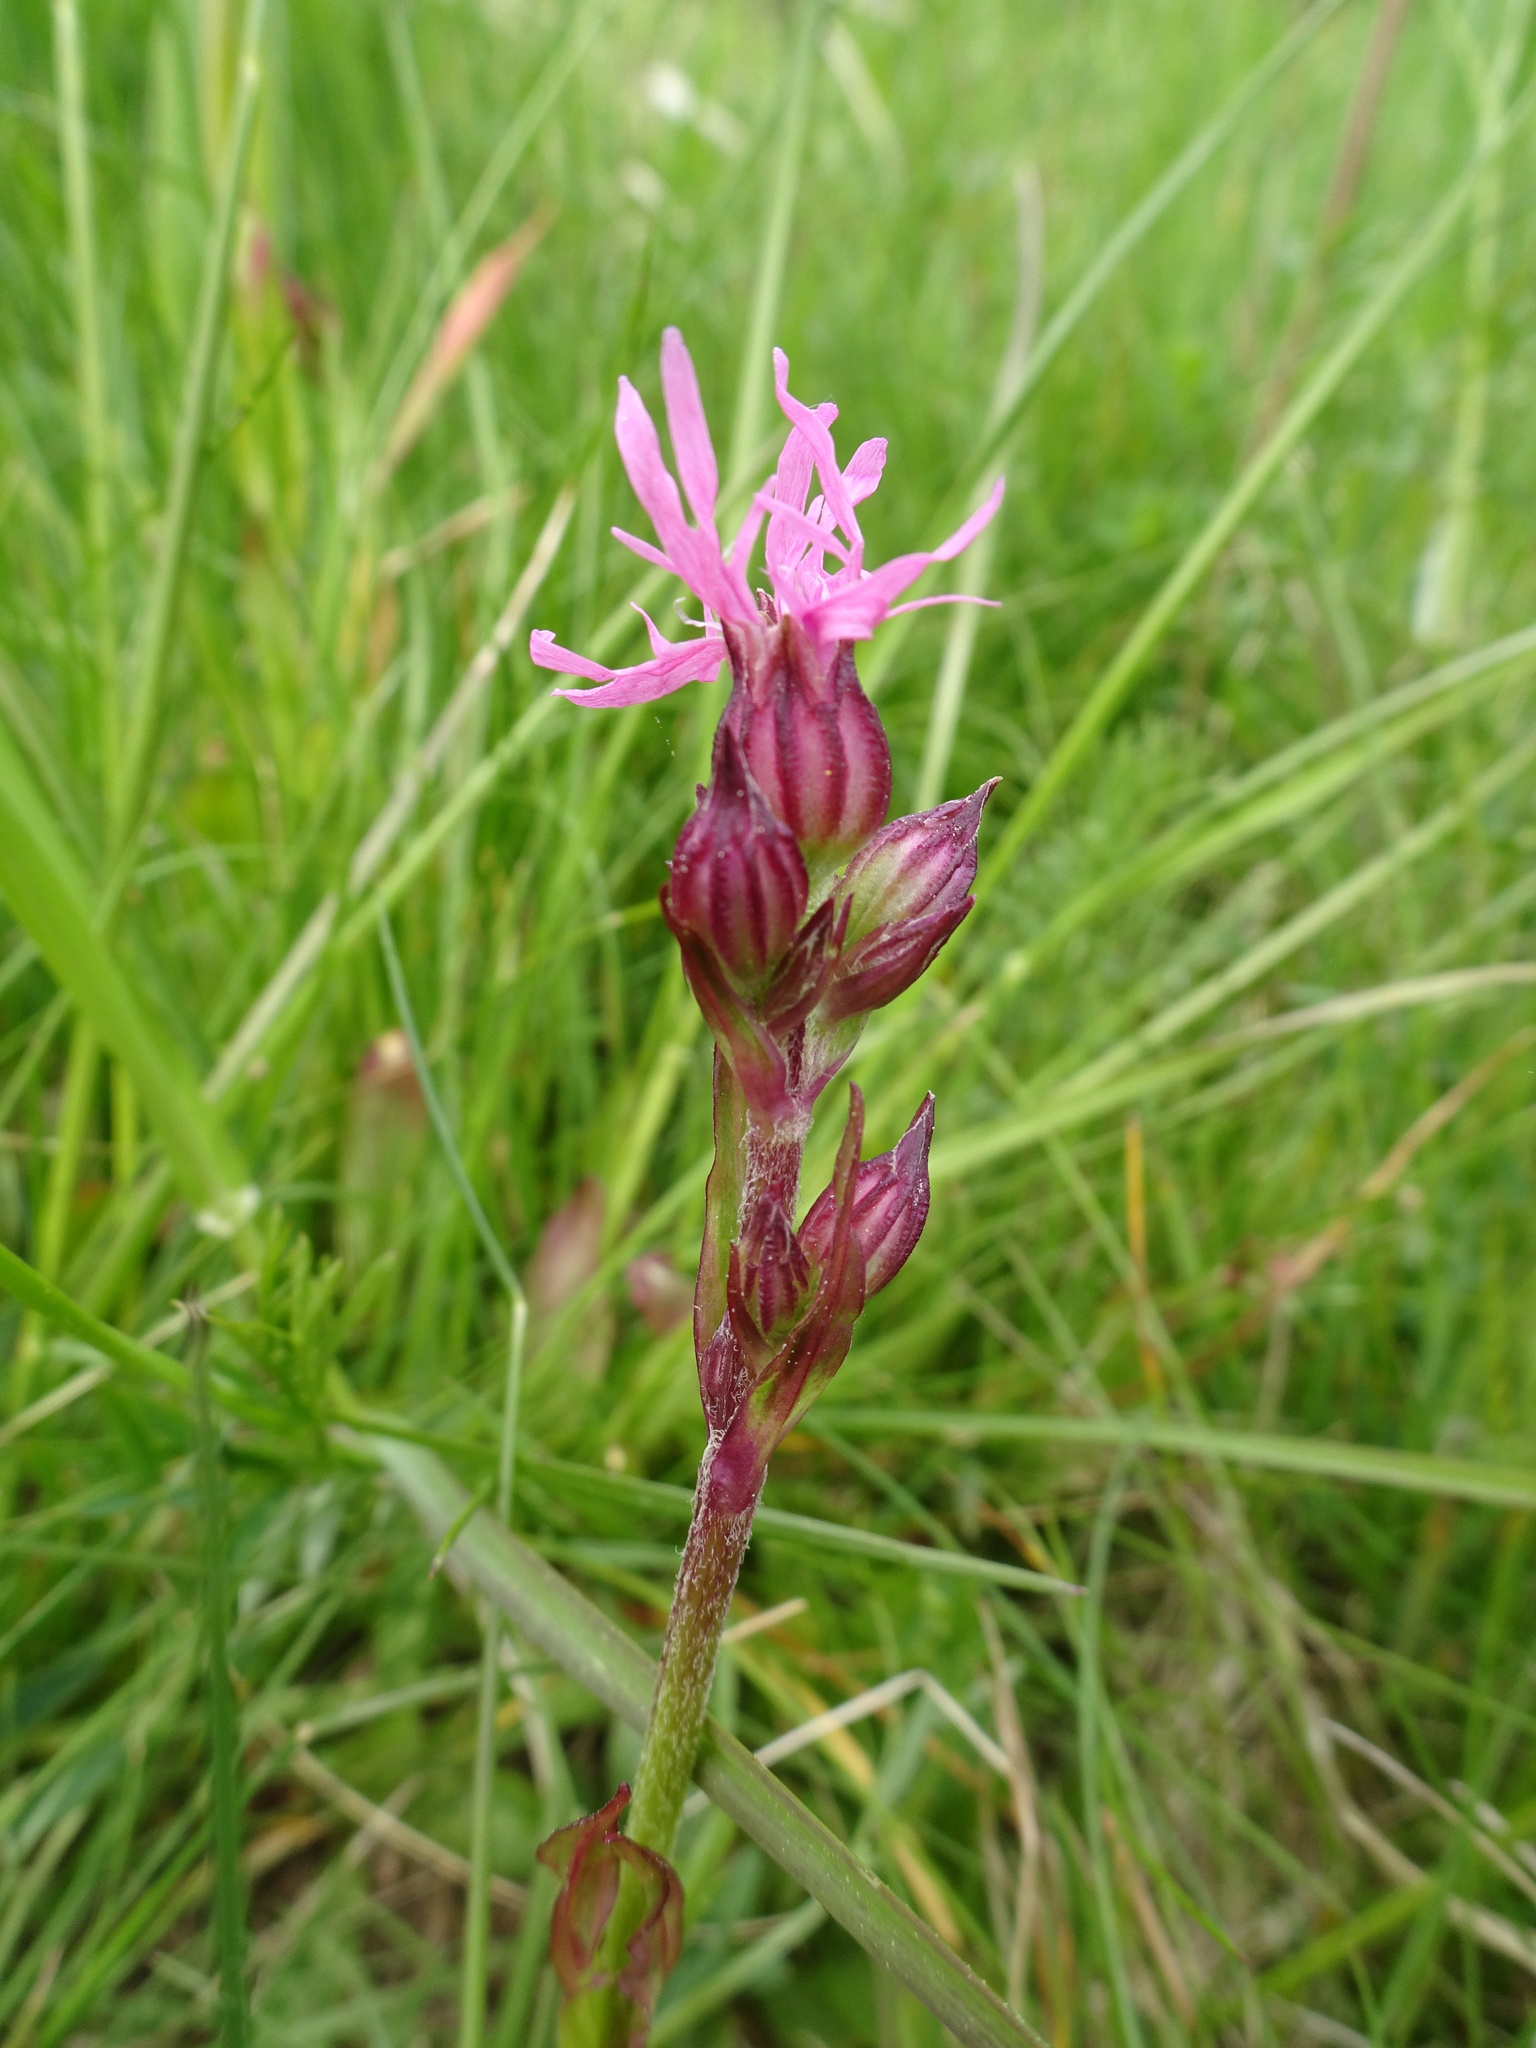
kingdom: Plantae
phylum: Tracheophyta
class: Magnoliopsida
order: Caryophyllales
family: Caryophyllaceae
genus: Silene
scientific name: Silene flos-cuculi
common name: Ragged-robin
